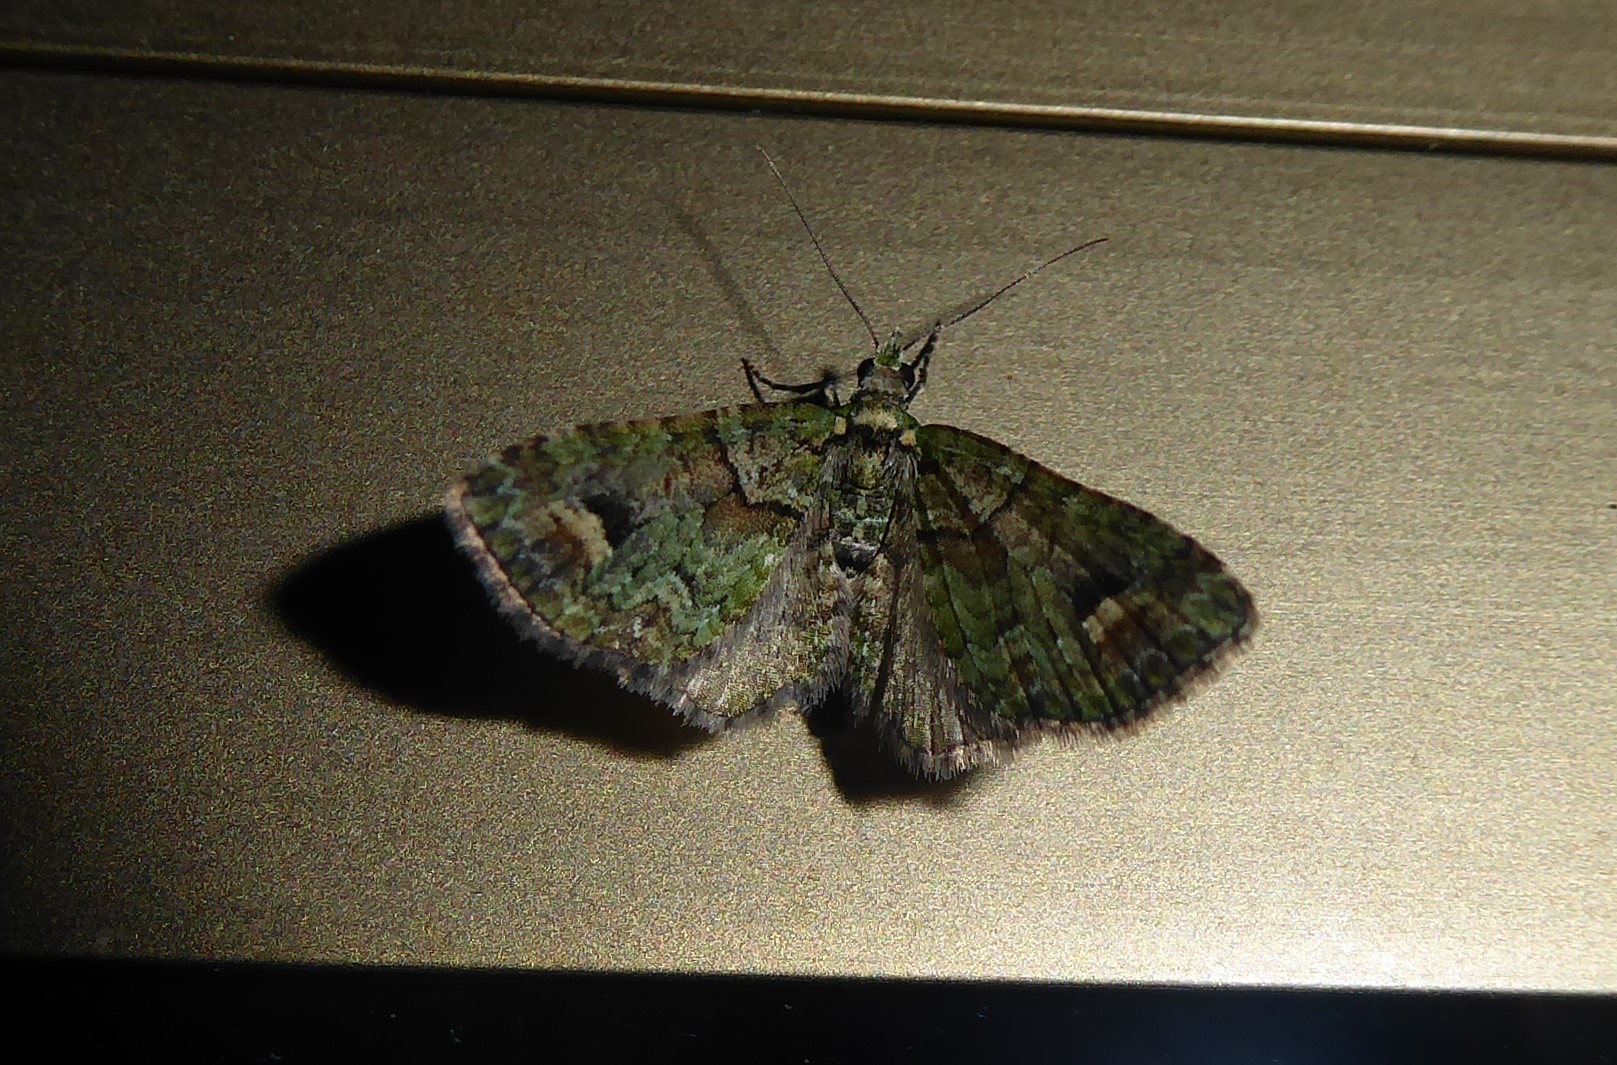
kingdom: Animalia
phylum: Arthropoda
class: Insecta
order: Lepidoptera
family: Geometridae
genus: Idaea
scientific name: Idaea mutanda
